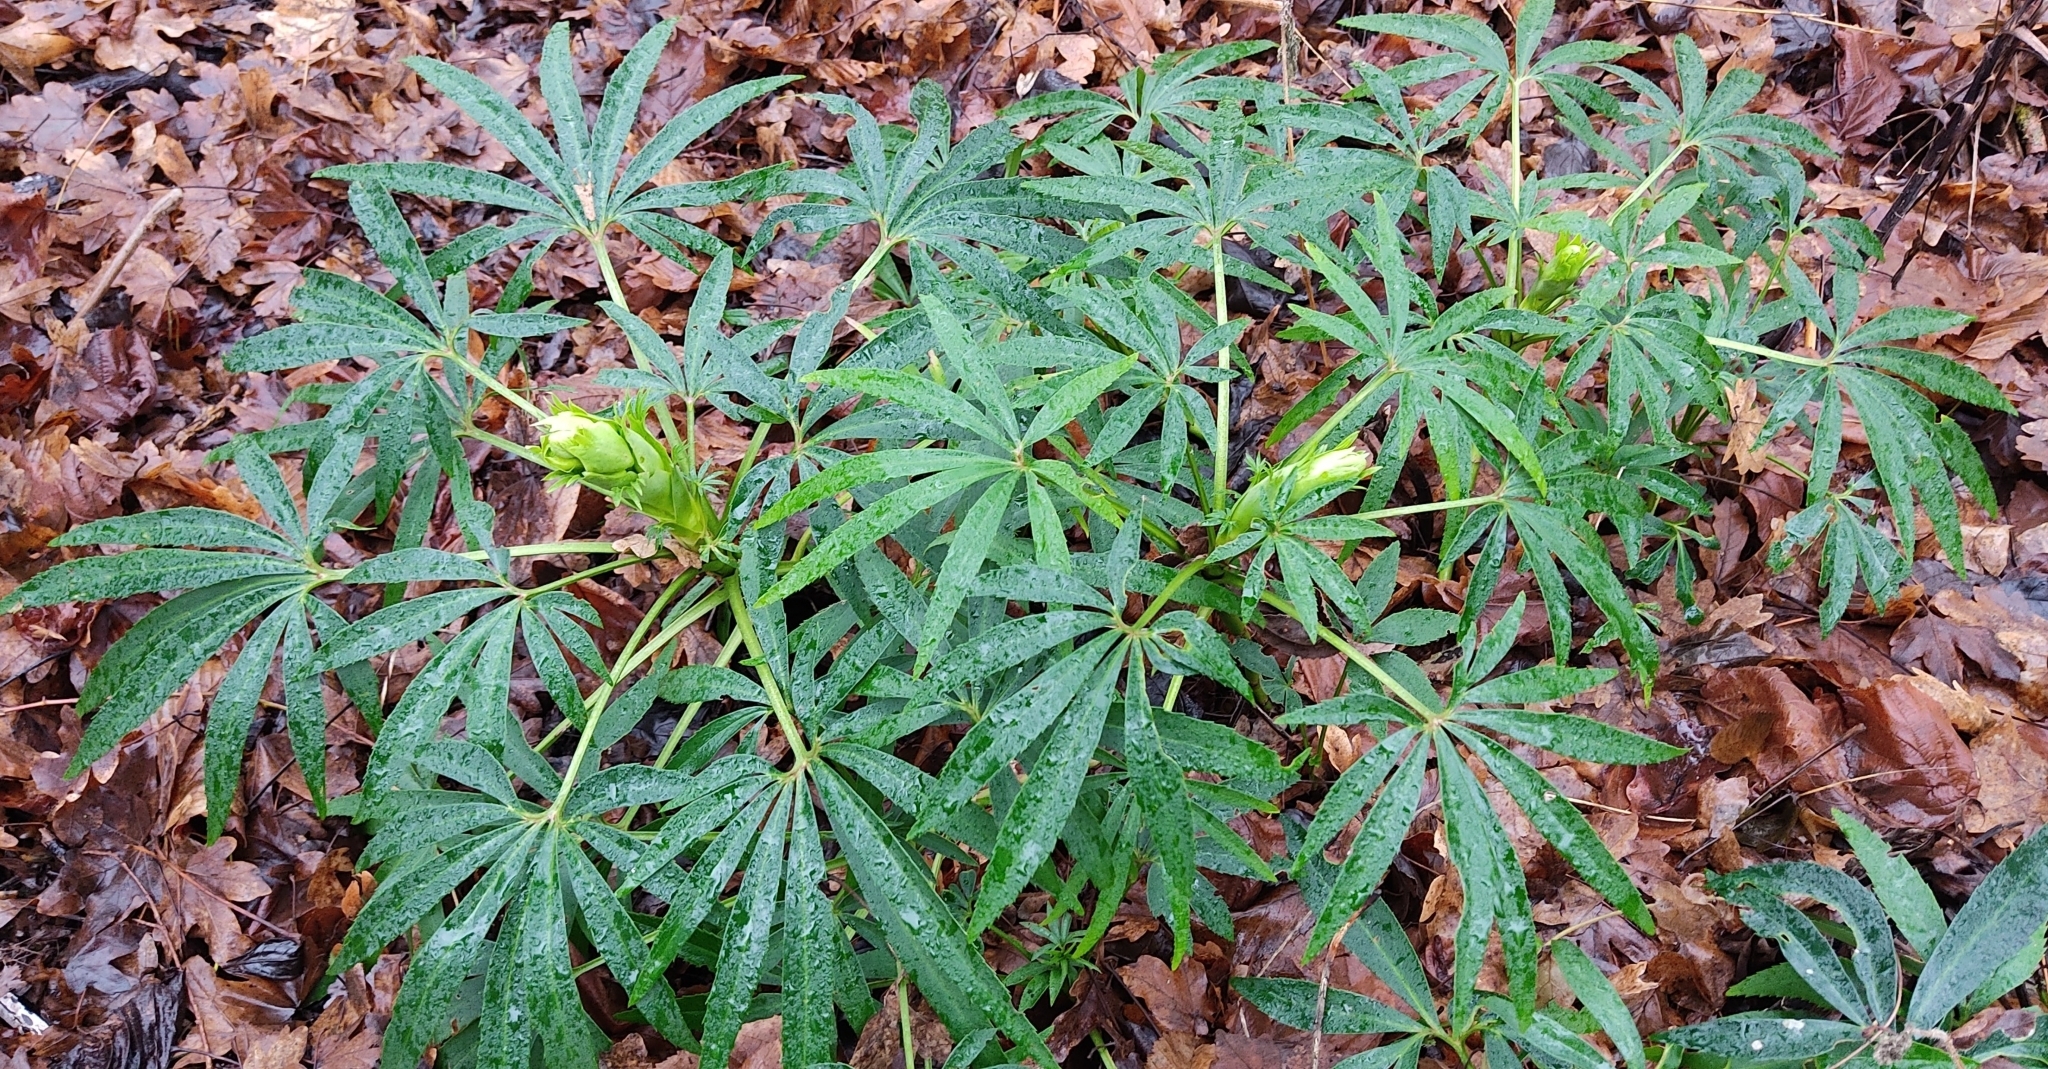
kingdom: Plantae
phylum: Tracheophyta
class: Magnoliopsida
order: Ranunculales
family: Ranunculaceae
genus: Helleborus
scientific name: Helleborus foetidus
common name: Stinking hellebore
